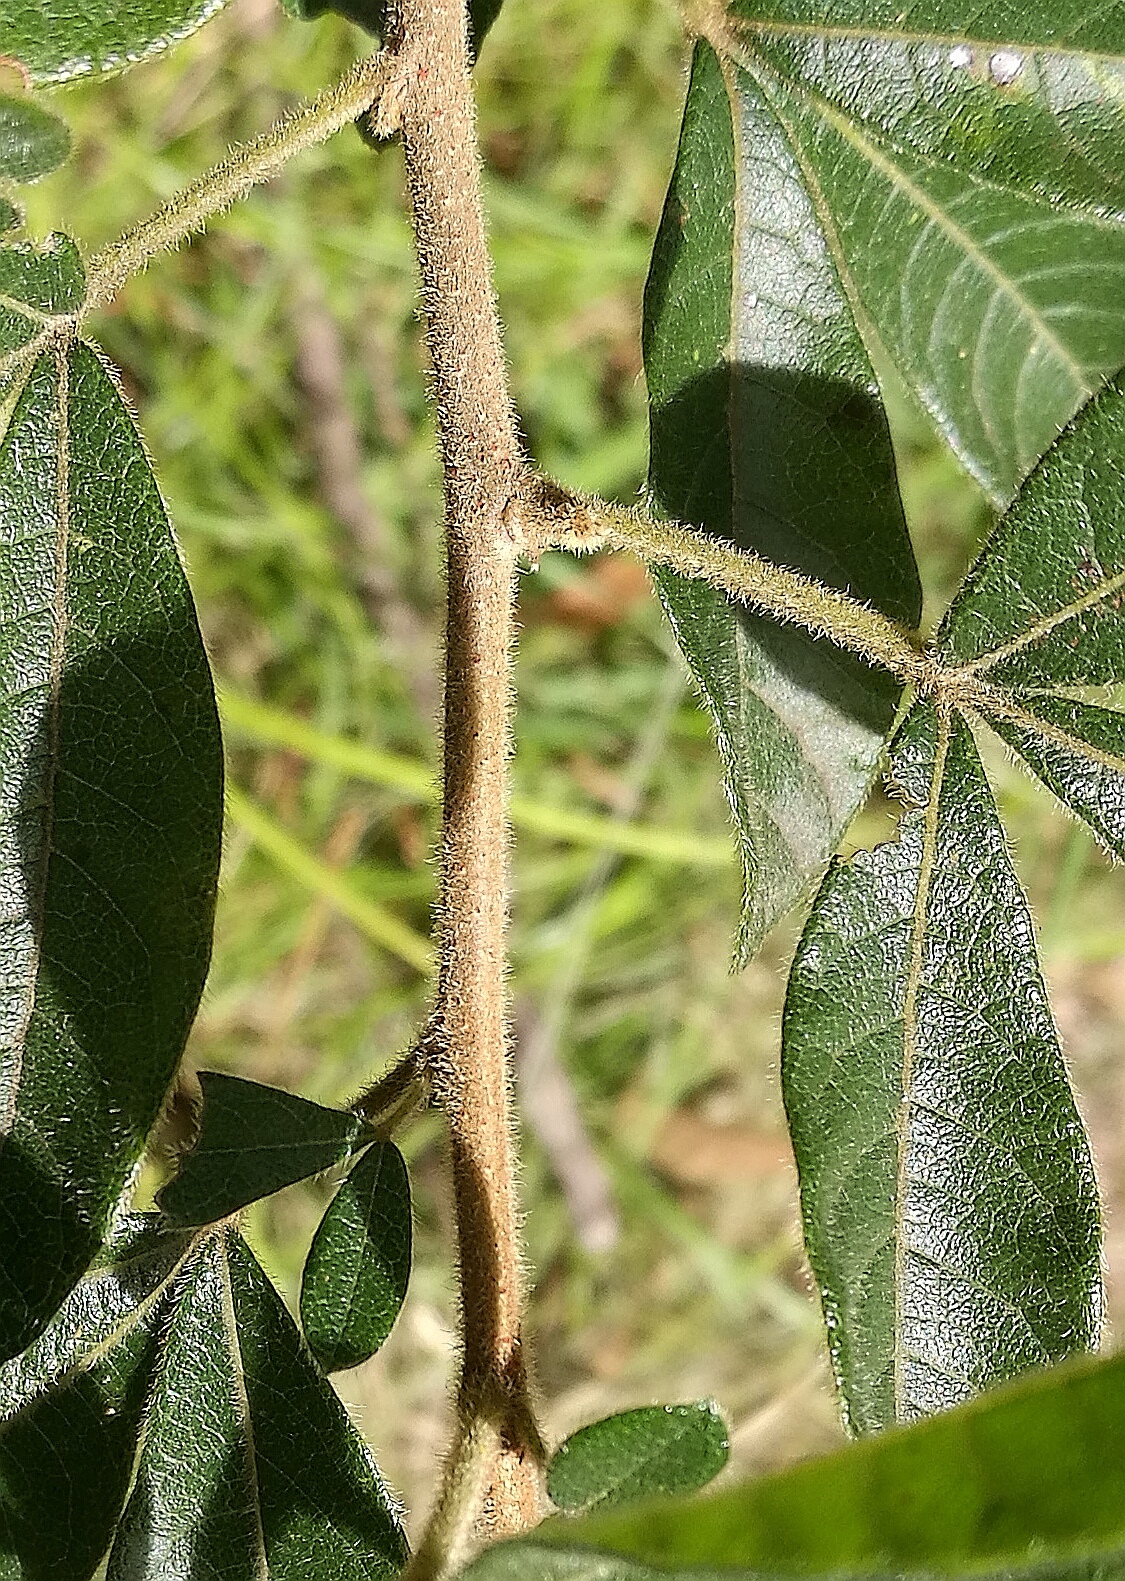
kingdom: Plantae
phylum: Tracheophyta
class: Magnoliopsida
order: Sapindales
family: Anacardiaceae
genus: Searsia
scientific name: Searsia pyroides
